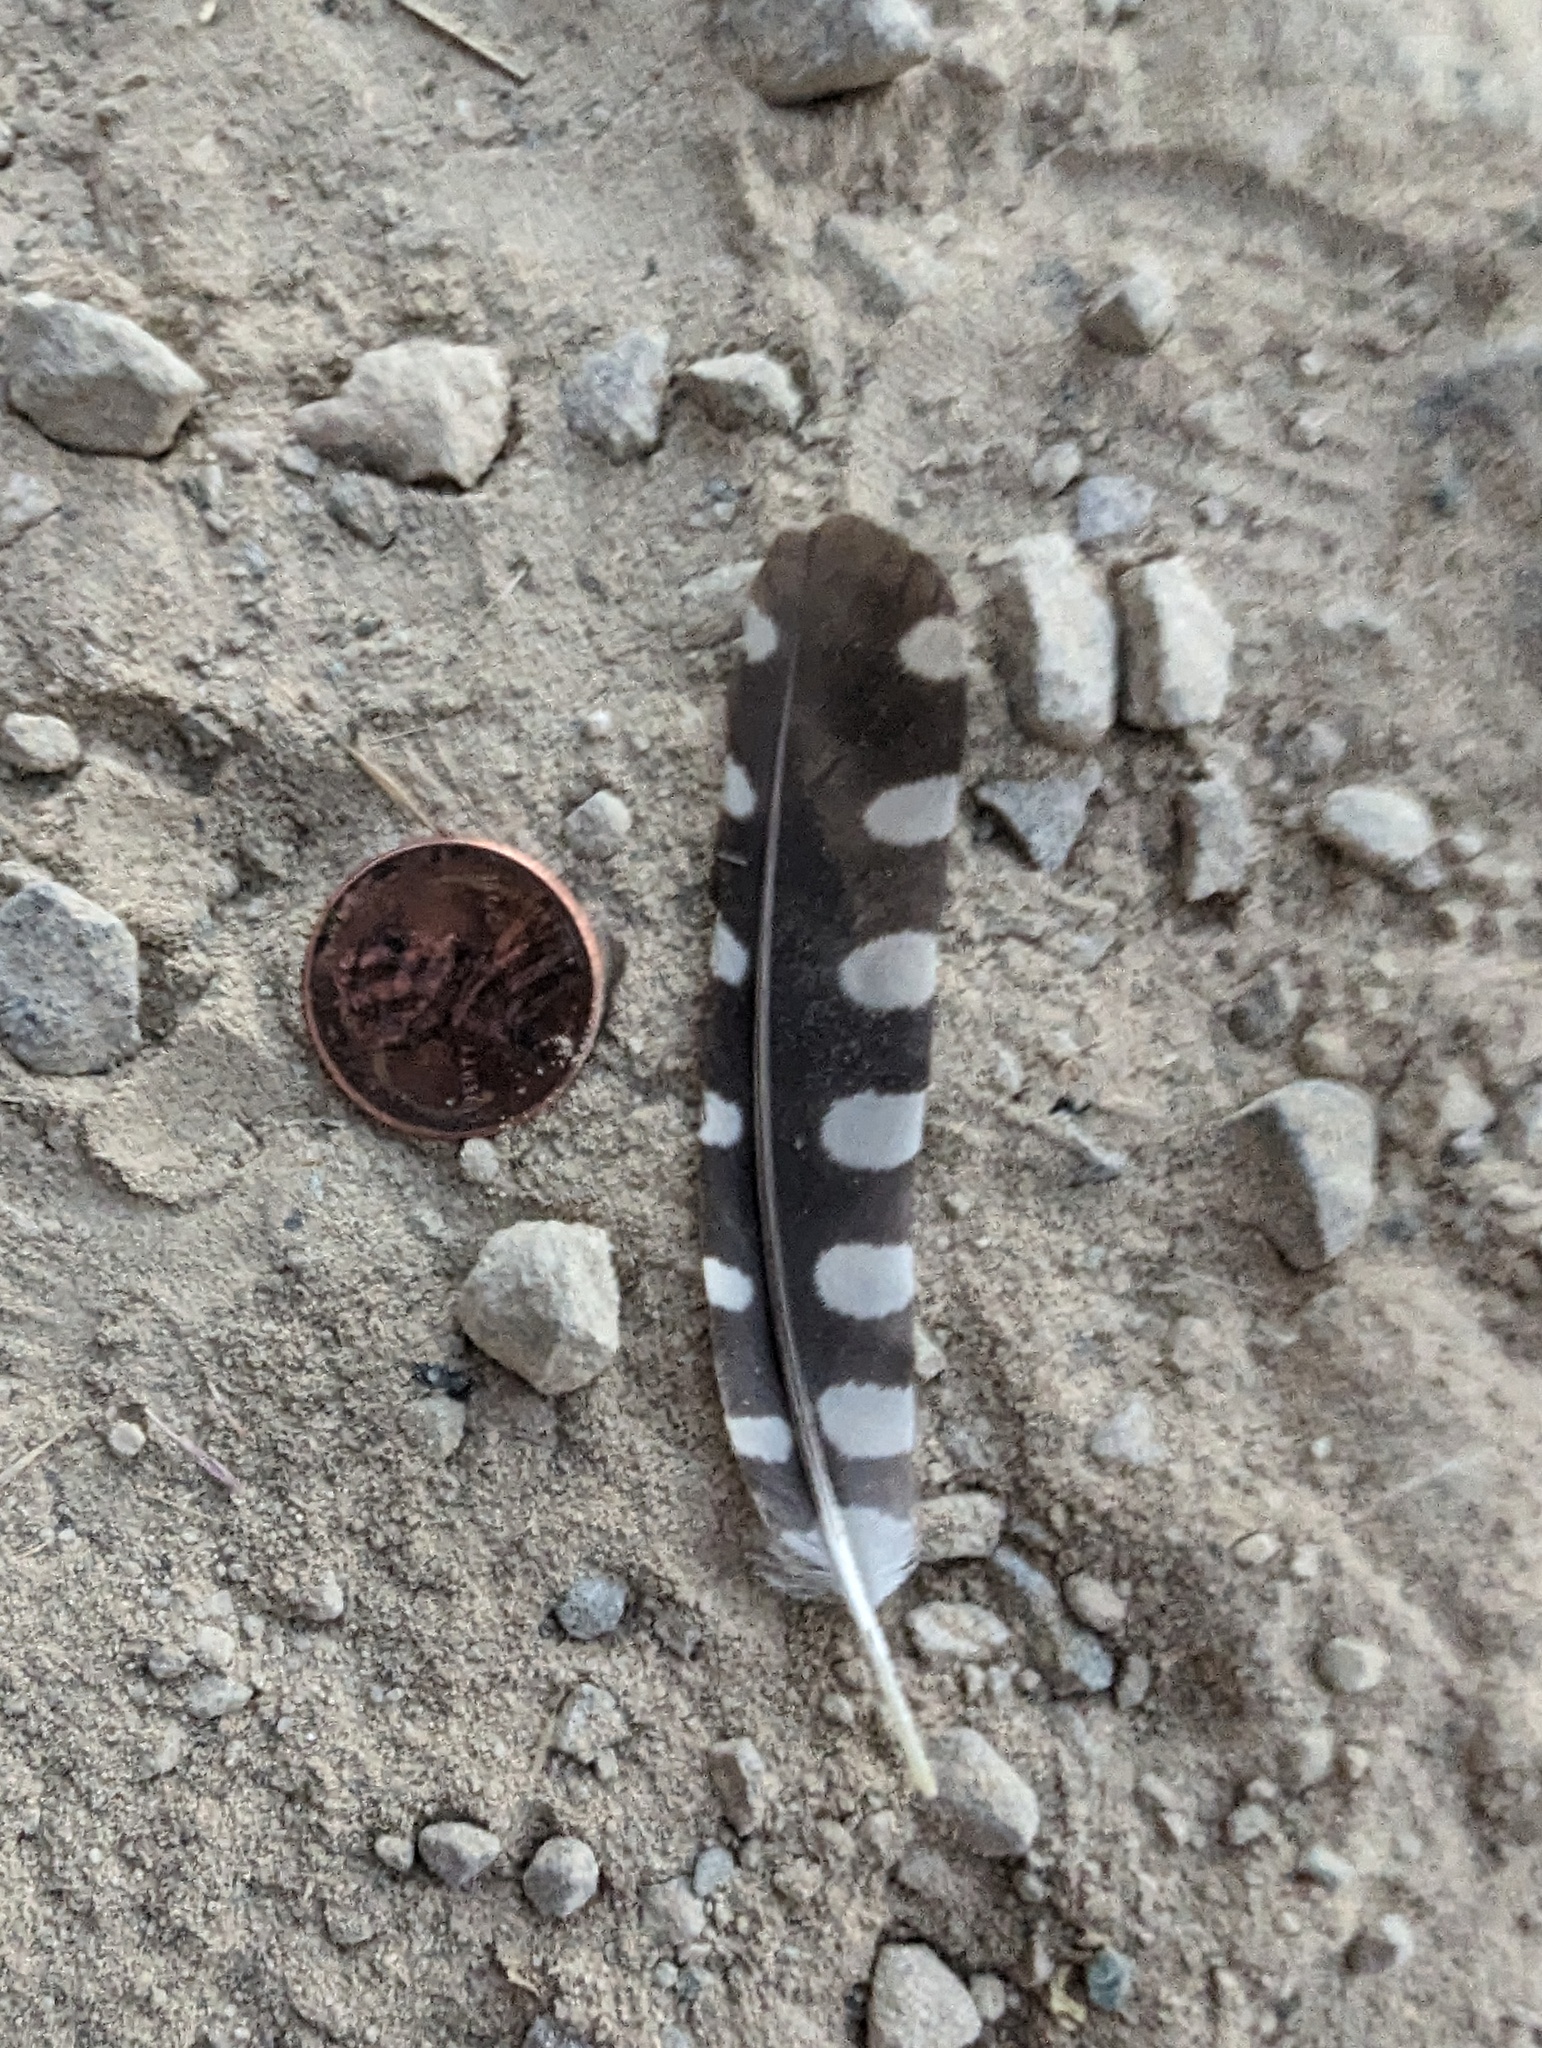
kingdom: Animalia
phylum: Chordata
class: Aves
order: Piciformes
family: Picidae
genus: Dryobates
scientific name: Dryobates nuttallii
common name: Nuttall's woodpecker
